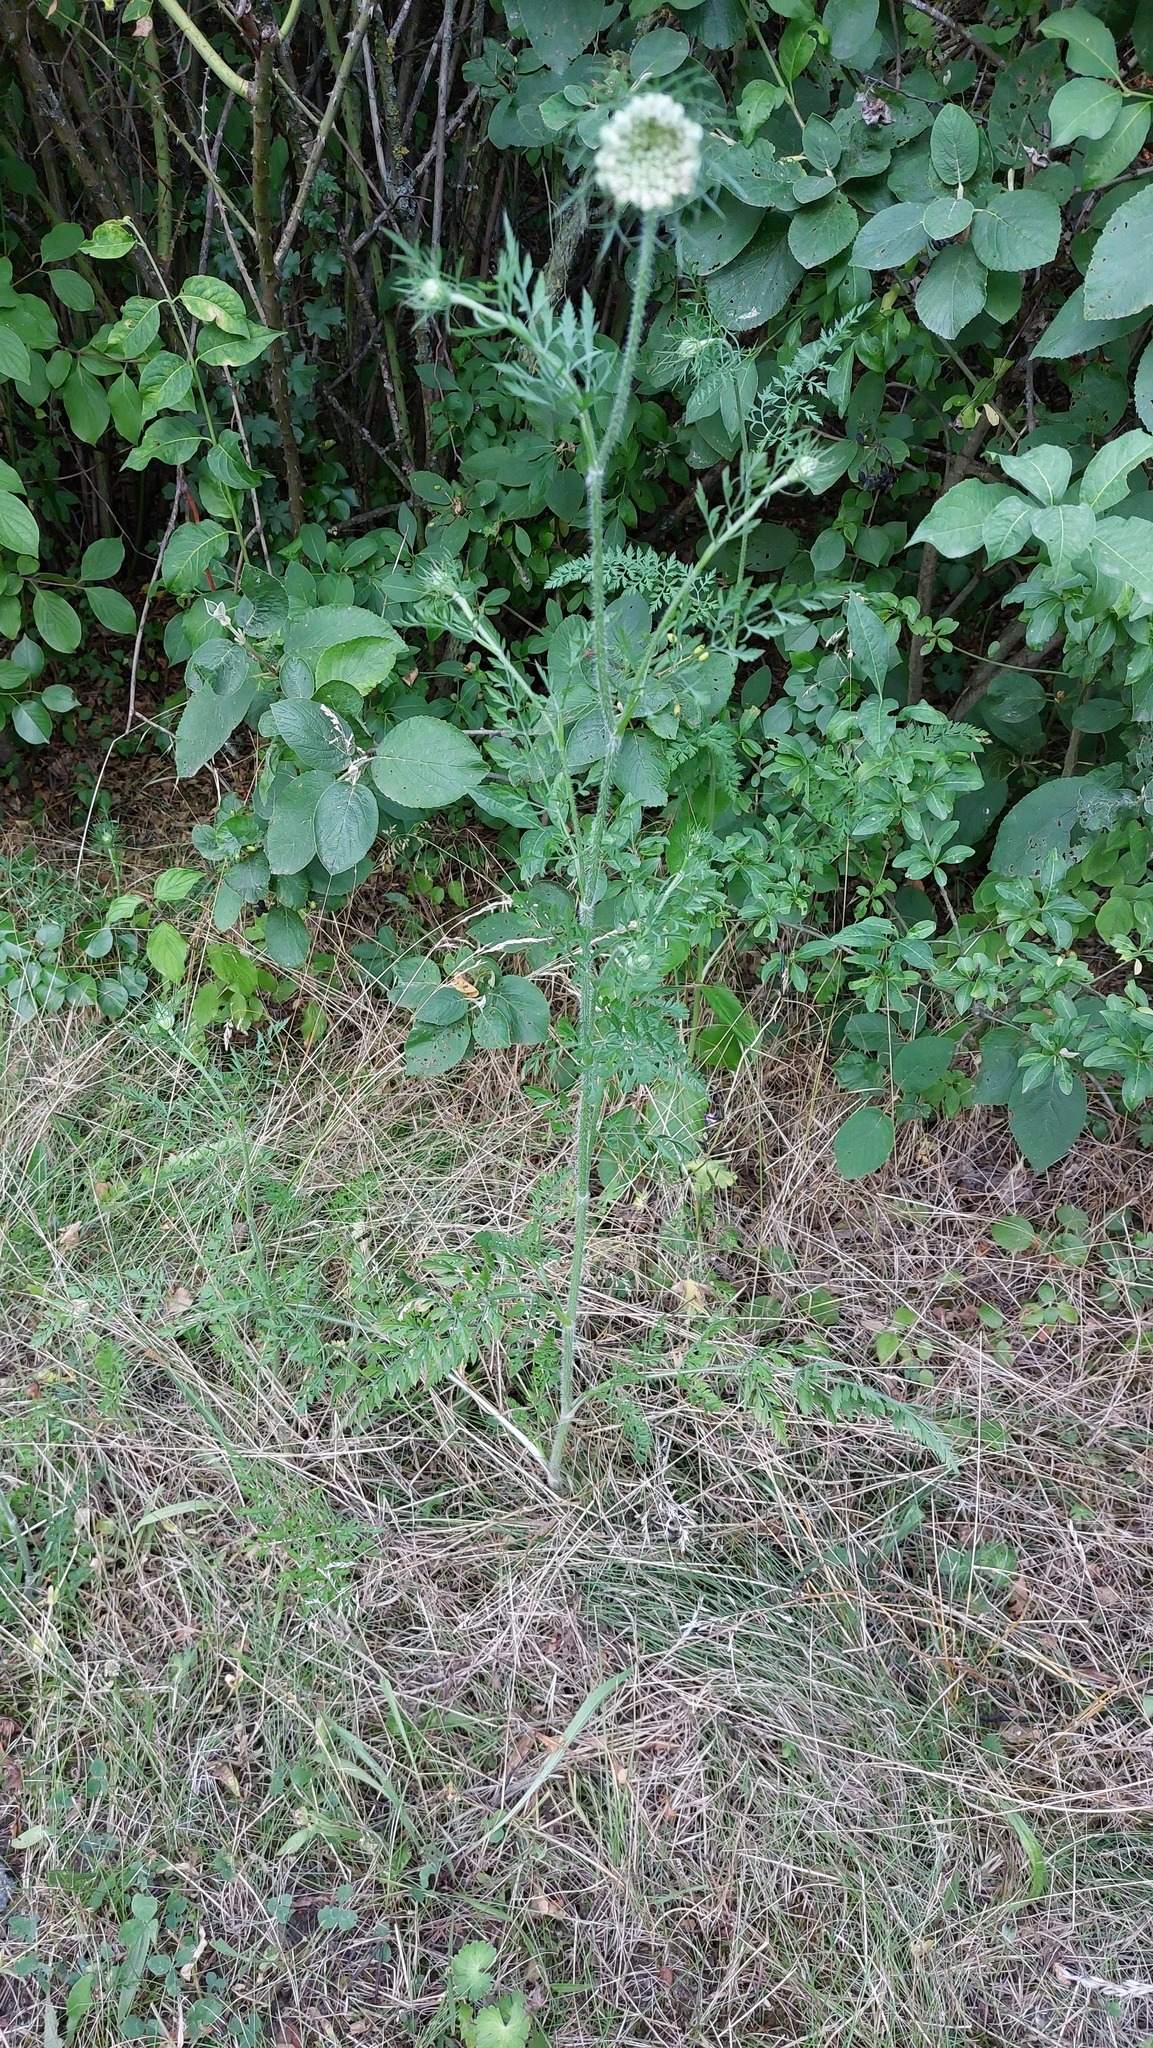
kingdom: Plantae
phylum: Tracheophyta
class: Magnoliopsida
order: Apiales
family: Apiaceae
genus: Daucus
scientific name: Daucus carota
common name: Wild carrot
